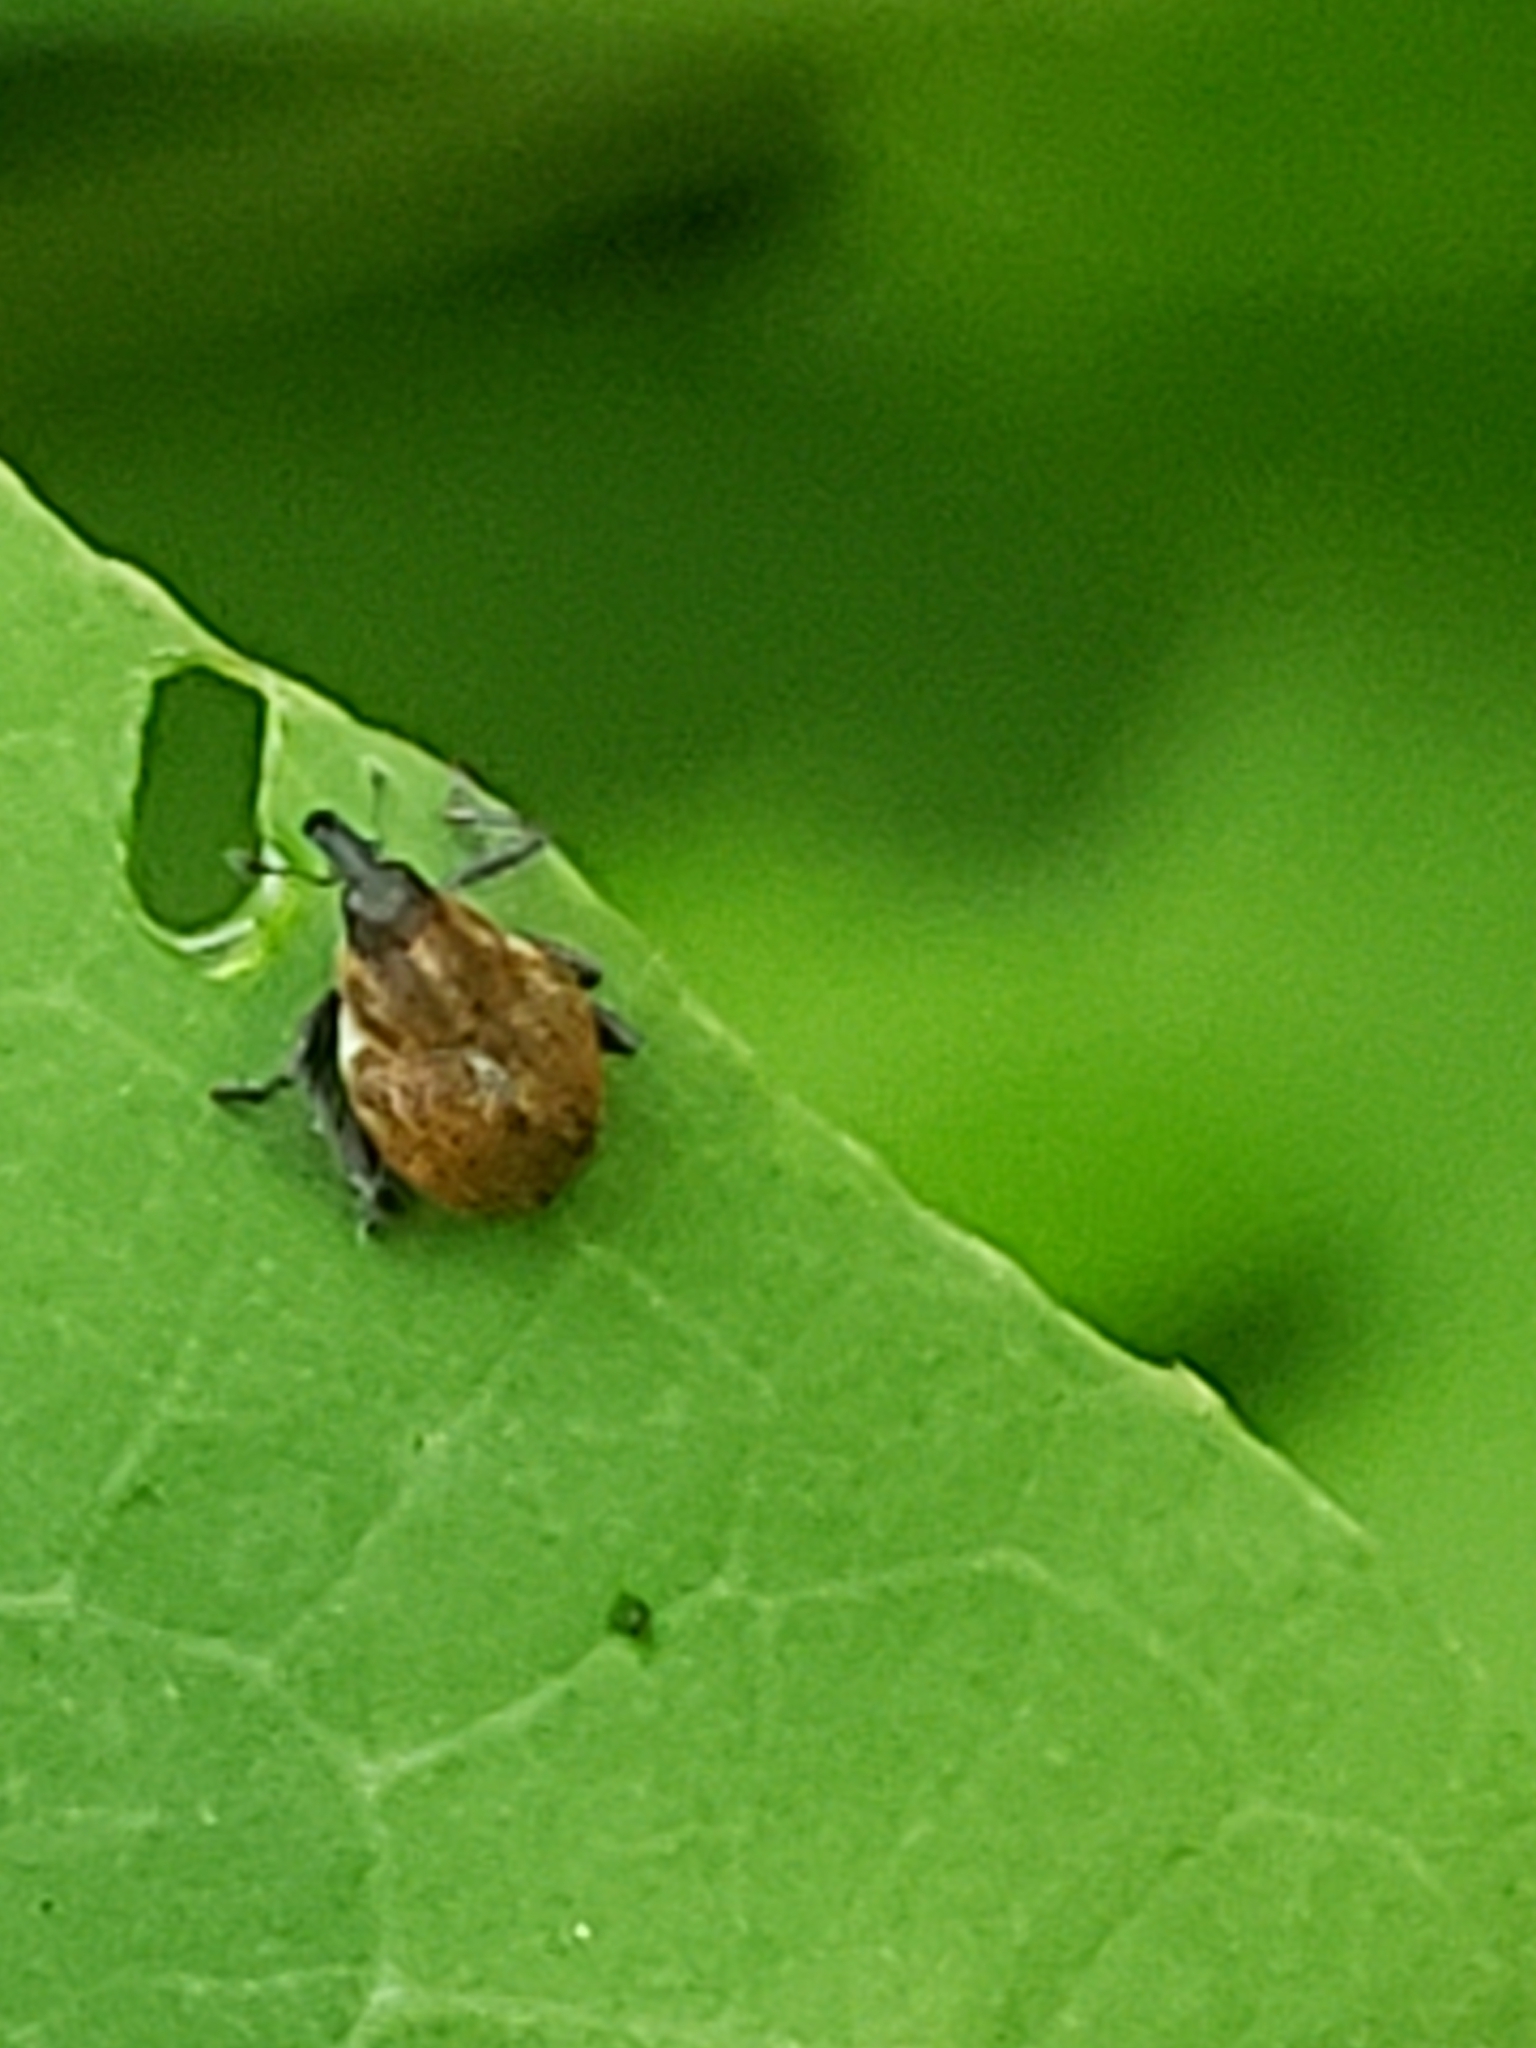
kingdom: Animalia
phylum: Arthropoda
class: Insecta
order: Coleoptera
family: Curculionidae
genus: Rhinoncomimus
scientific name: Rhinoncomimus latipes
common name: Chinese weevil
